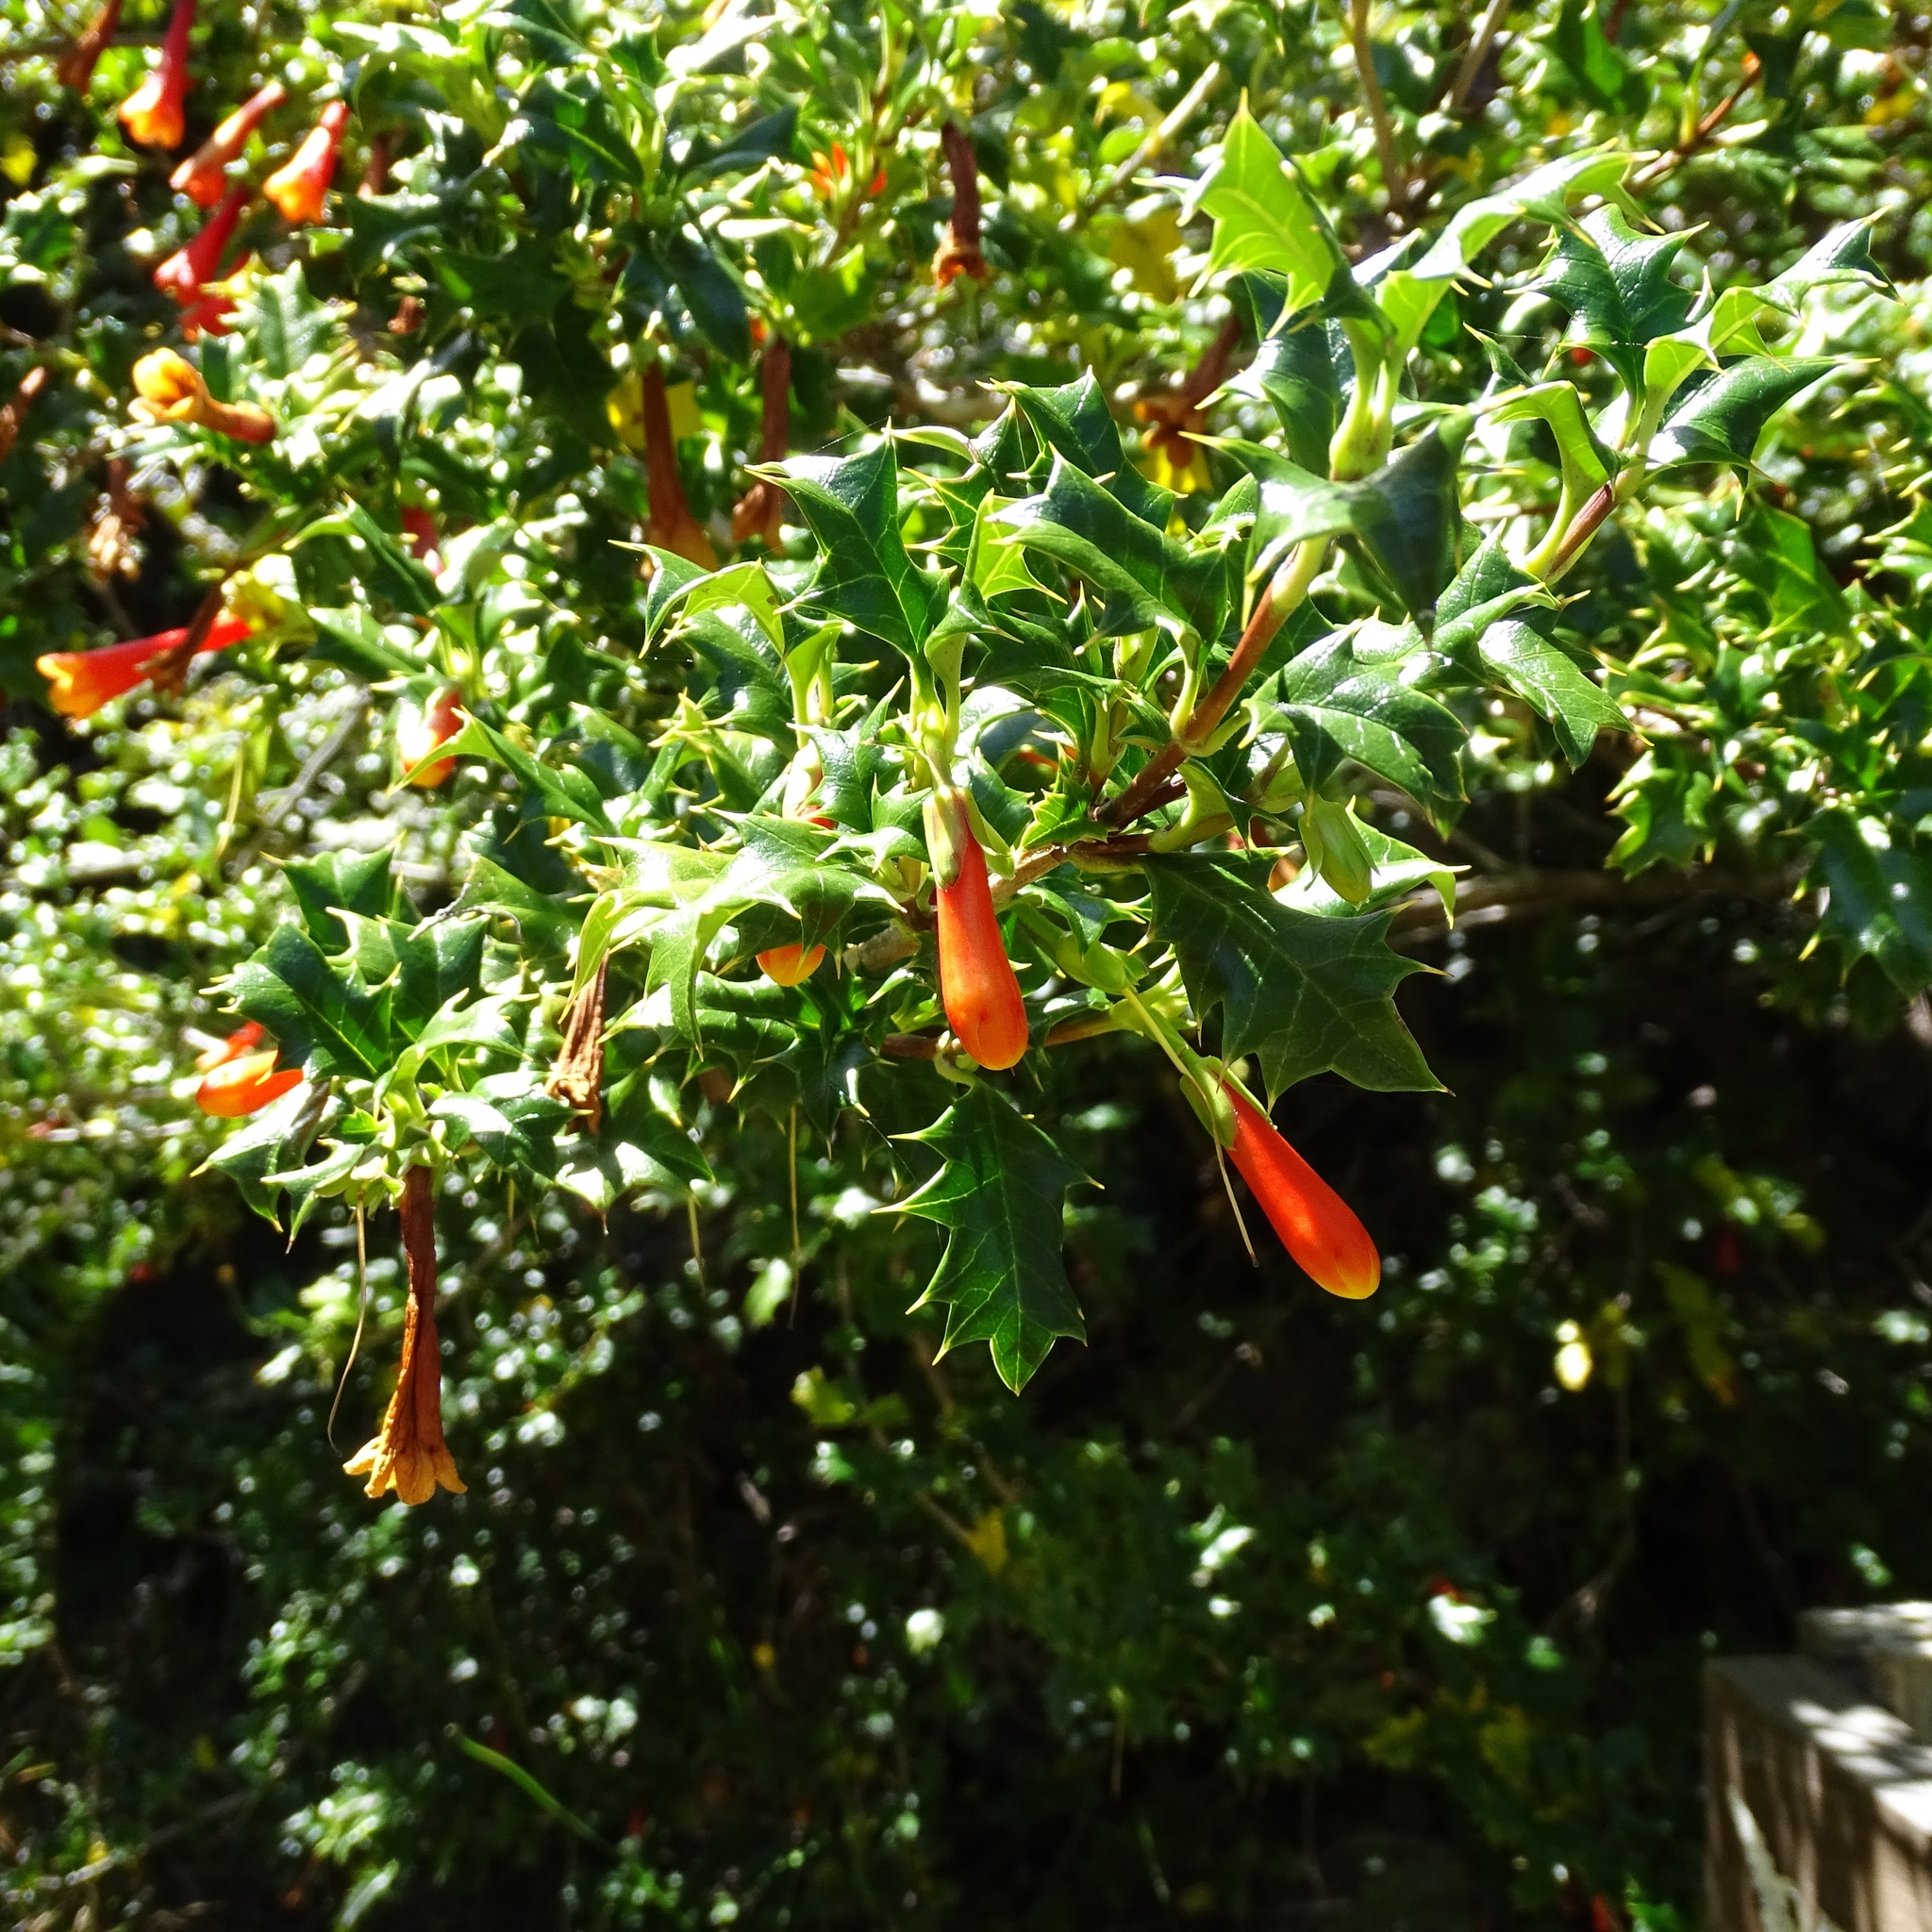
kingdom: Plantae
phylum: Tracheophyta
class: Magnoliopsida
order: Bruniales
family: Columelliaceae
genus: Desfontainia
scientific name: Desfontainia fulgens
